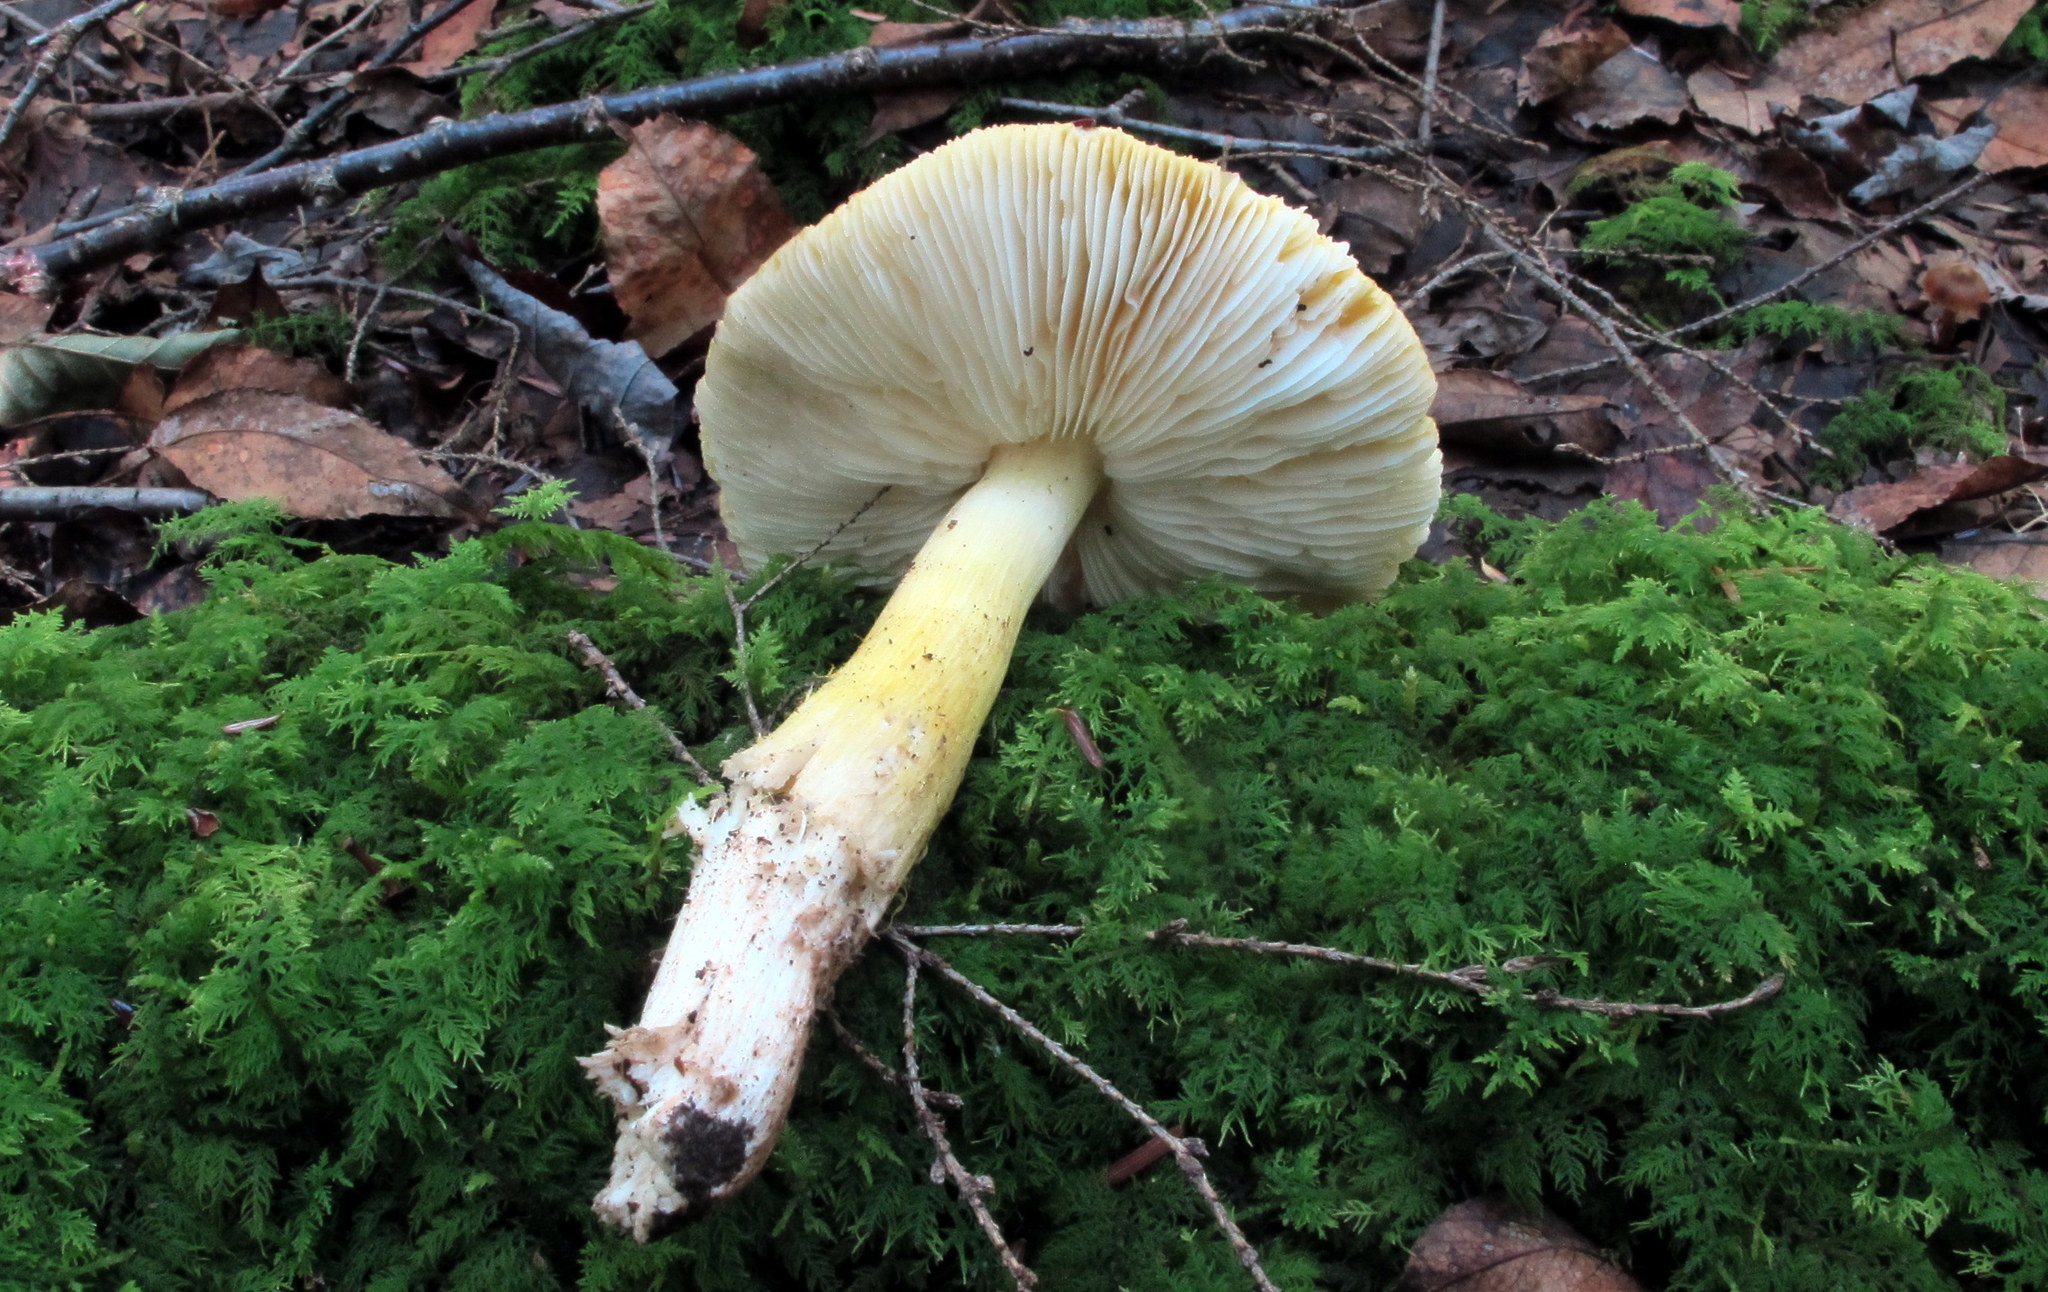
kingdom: Fungi
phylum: Basidiomycota
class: Agaricomycetes
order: Agaricales
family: Tricholomataceae
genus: Tricholoma
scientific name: Tricholoma subluteum
